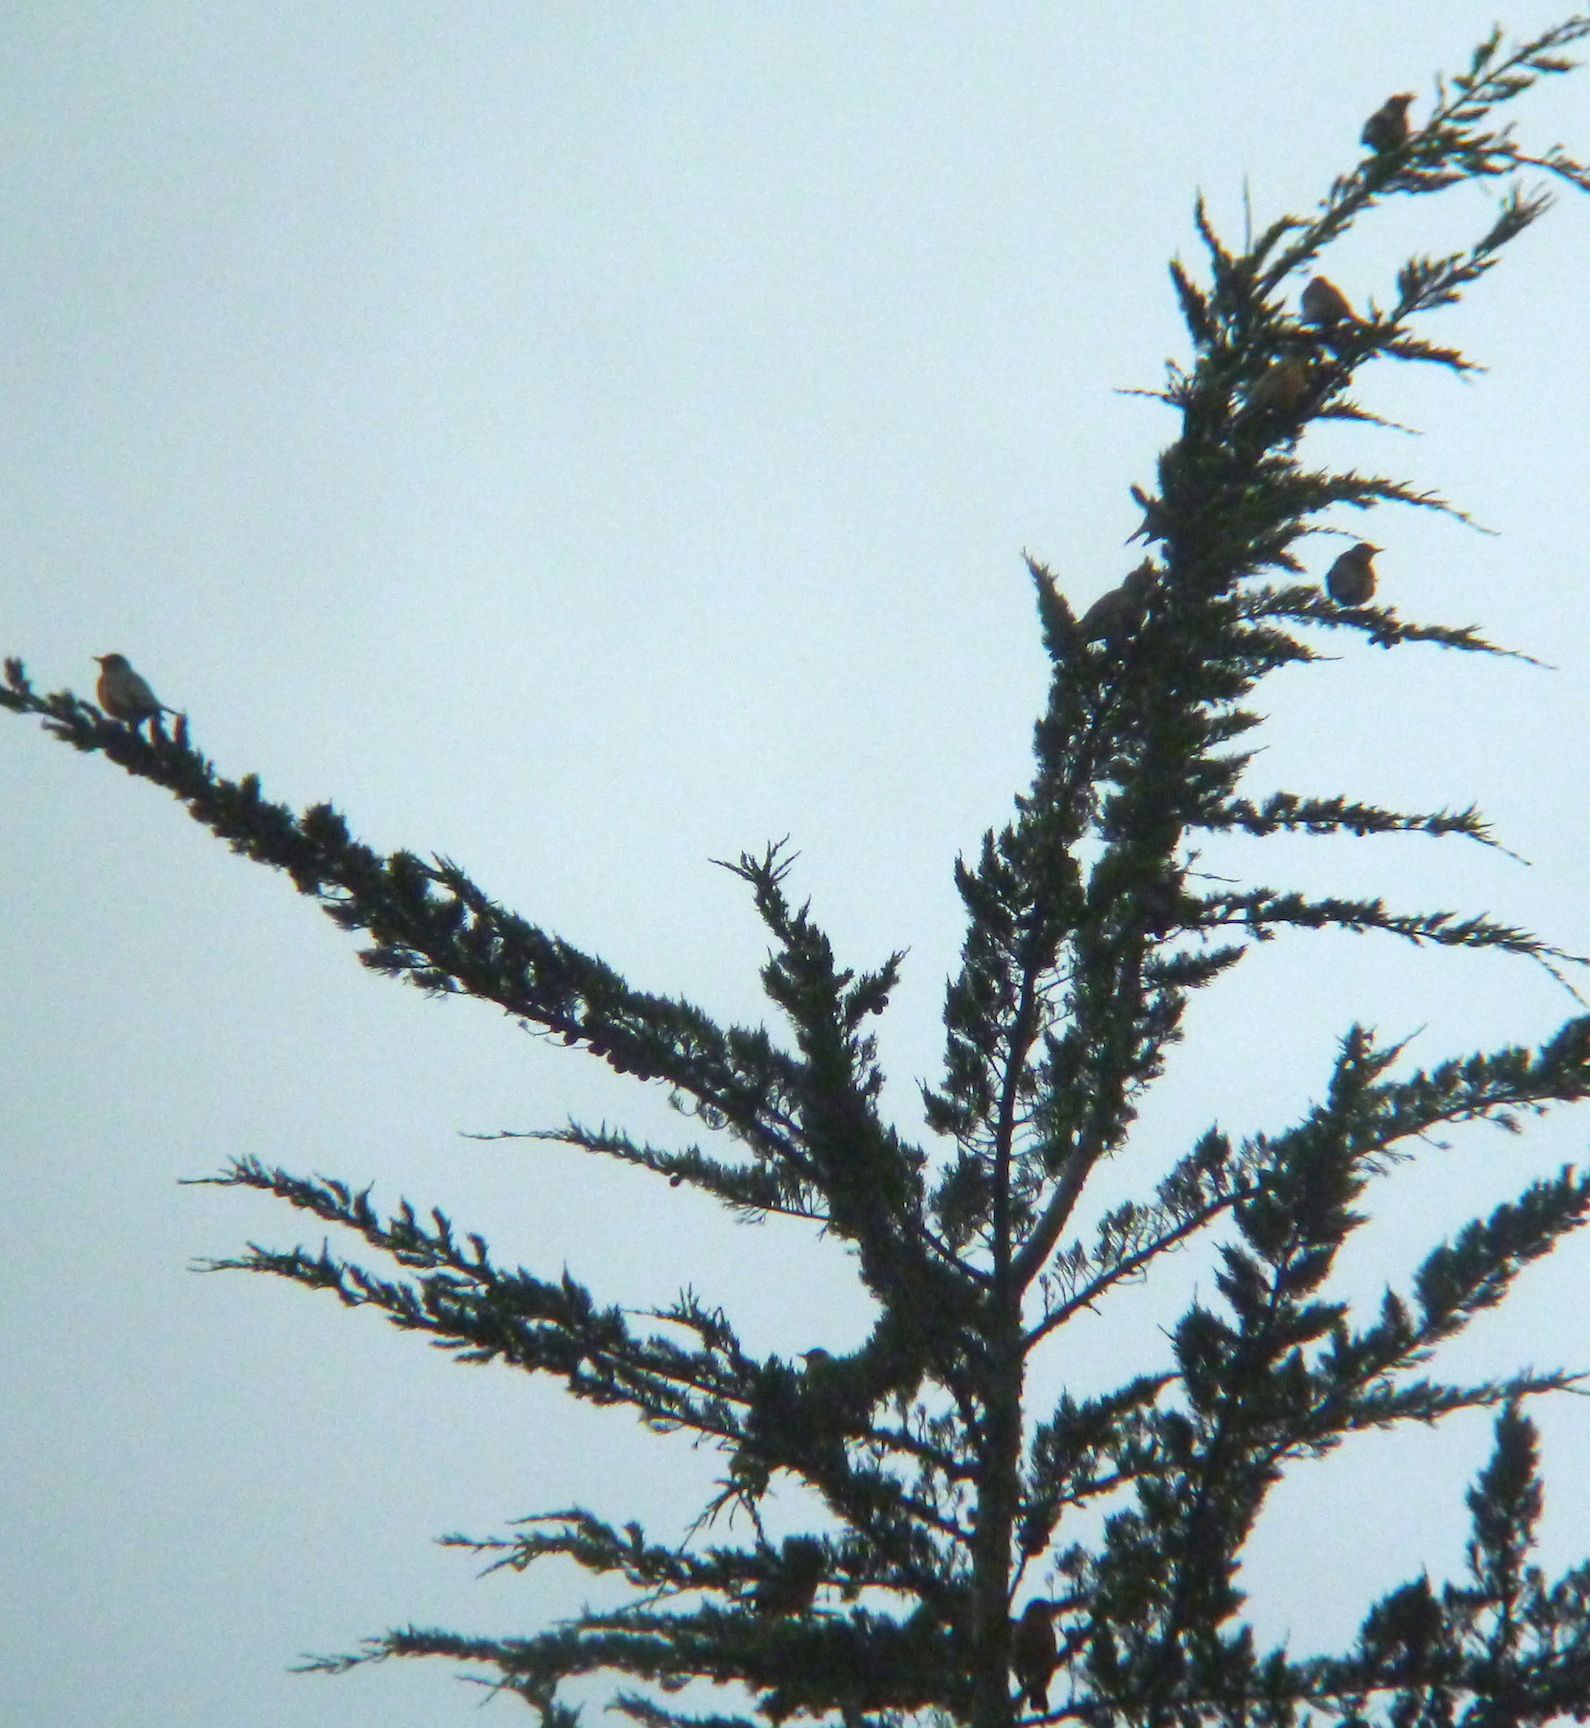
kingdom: Animalia
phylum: Chordata
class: Aves
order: Passeriformes
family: Turdidae
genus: Turdus
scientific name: Turdus migratorius
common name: American robin
